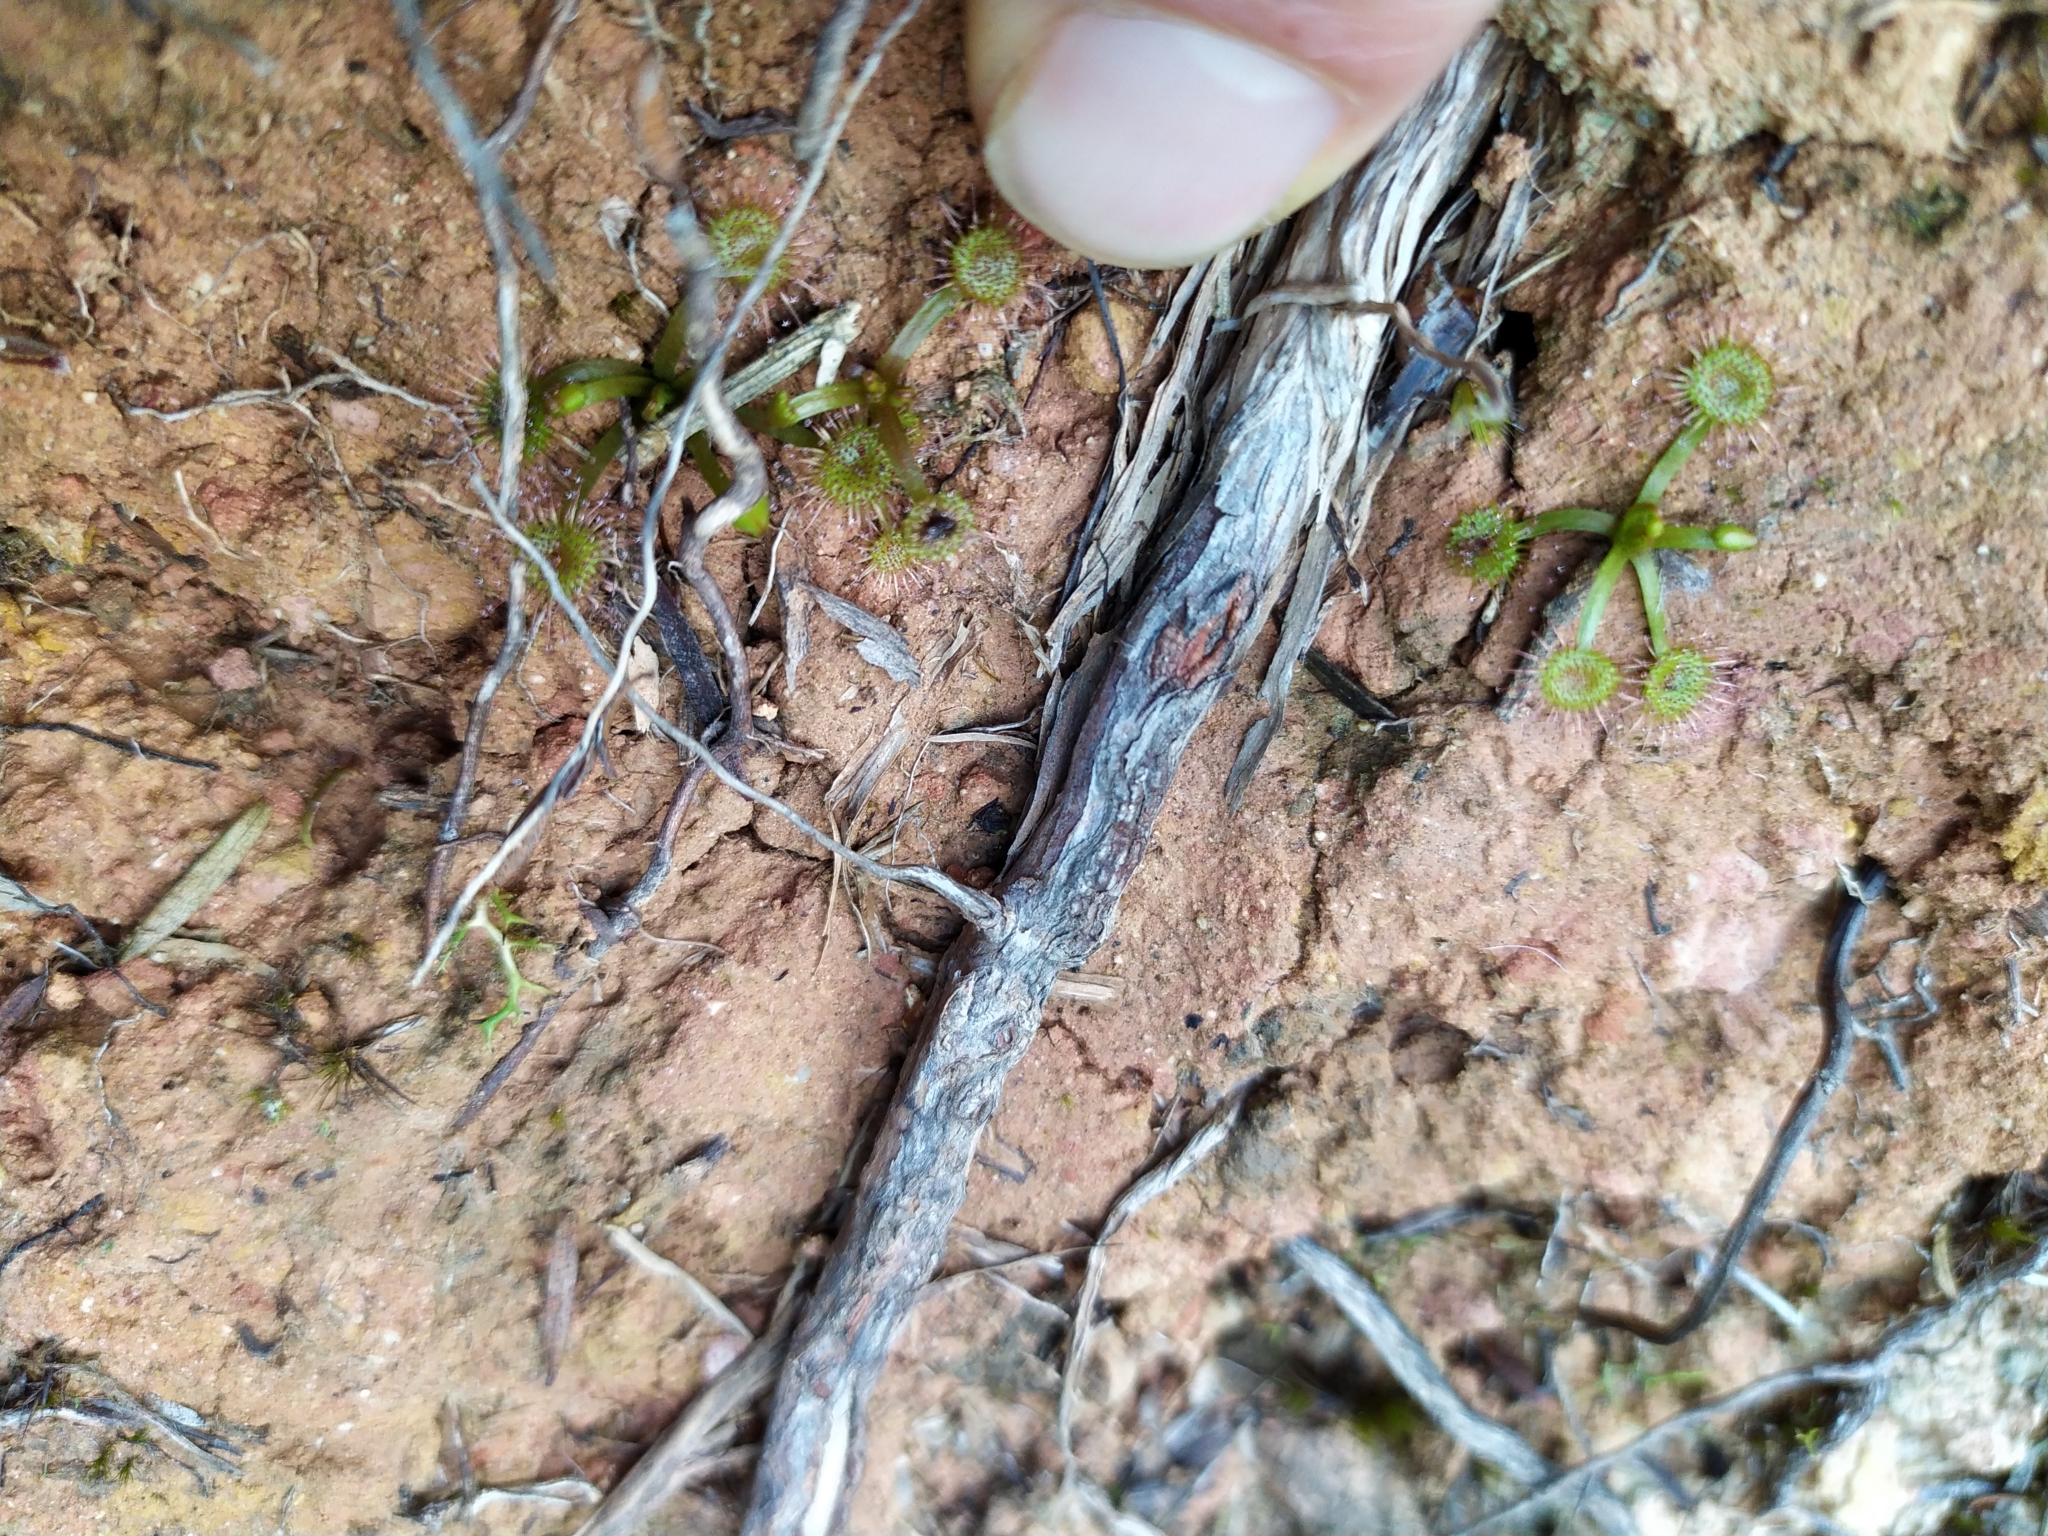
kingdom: Plantae
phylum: Tracheophyta
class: Magnoliopsida
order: Caryophyllales
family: Droseraceae
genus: Drosera
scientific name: Drosera peltata
